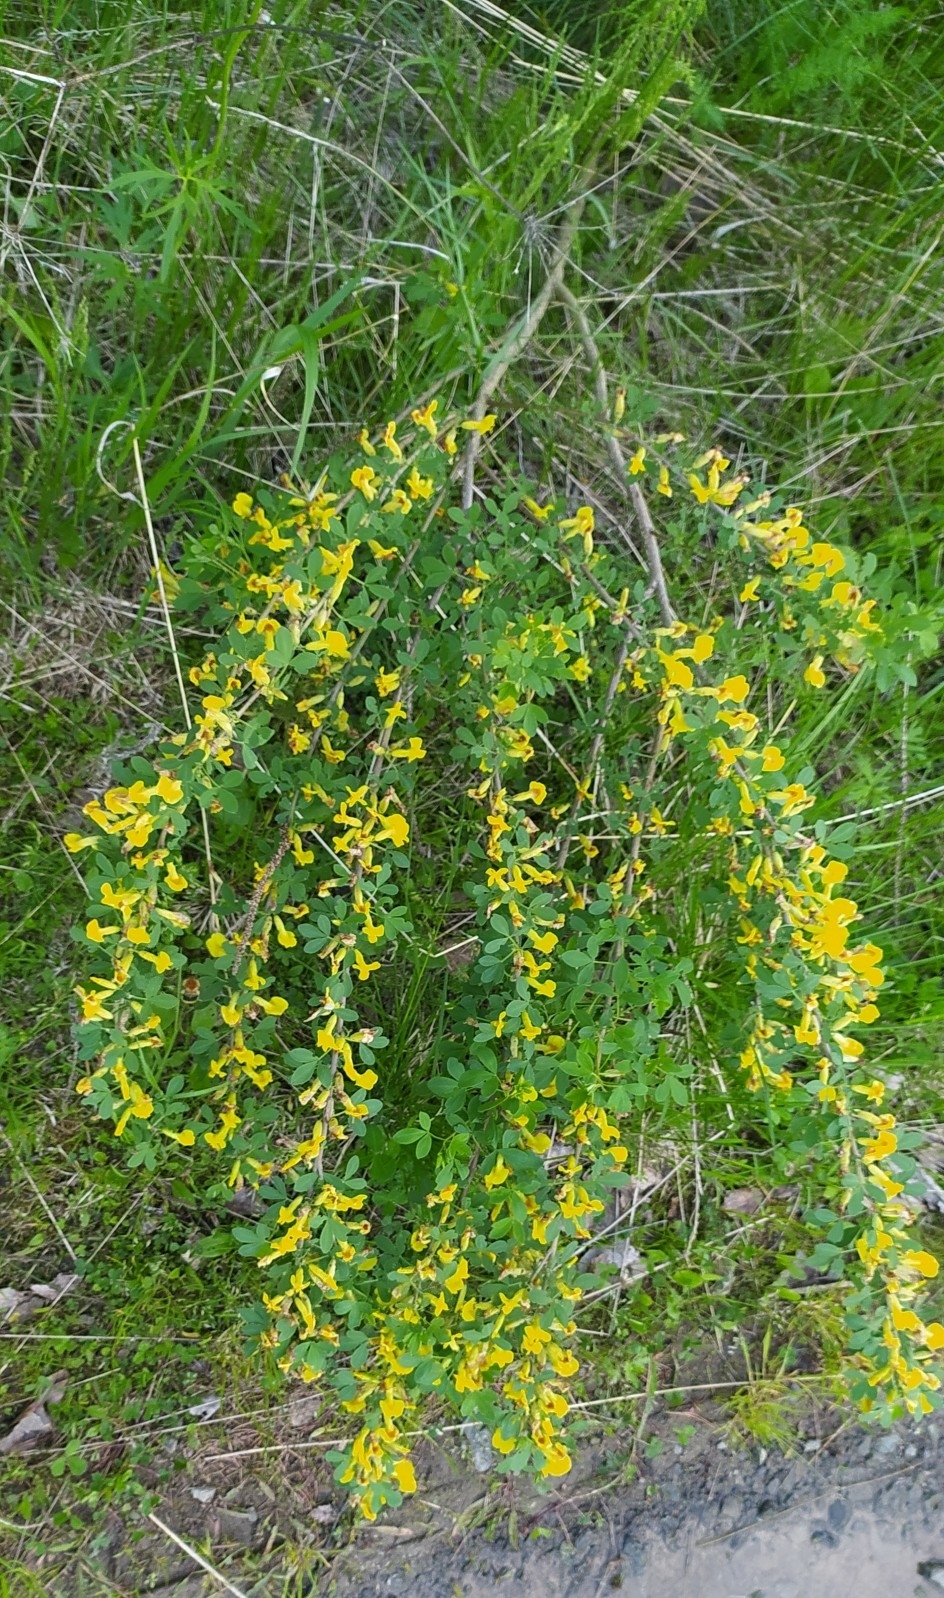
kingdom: Plantae
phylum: Tracheophyta
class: Magnoliopsida
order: Fabales
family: Fabaceae
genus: Chamaecytisus
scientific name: Chamaecytisus ruthenicus
